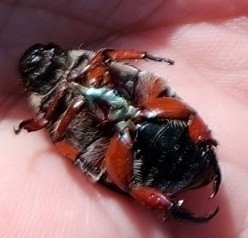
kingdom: Animalia
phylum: Arthropoda
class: Insecta
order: Coleoptera
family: Scarabaeidae
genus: Repsimus
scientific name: Repsimus manicatus
